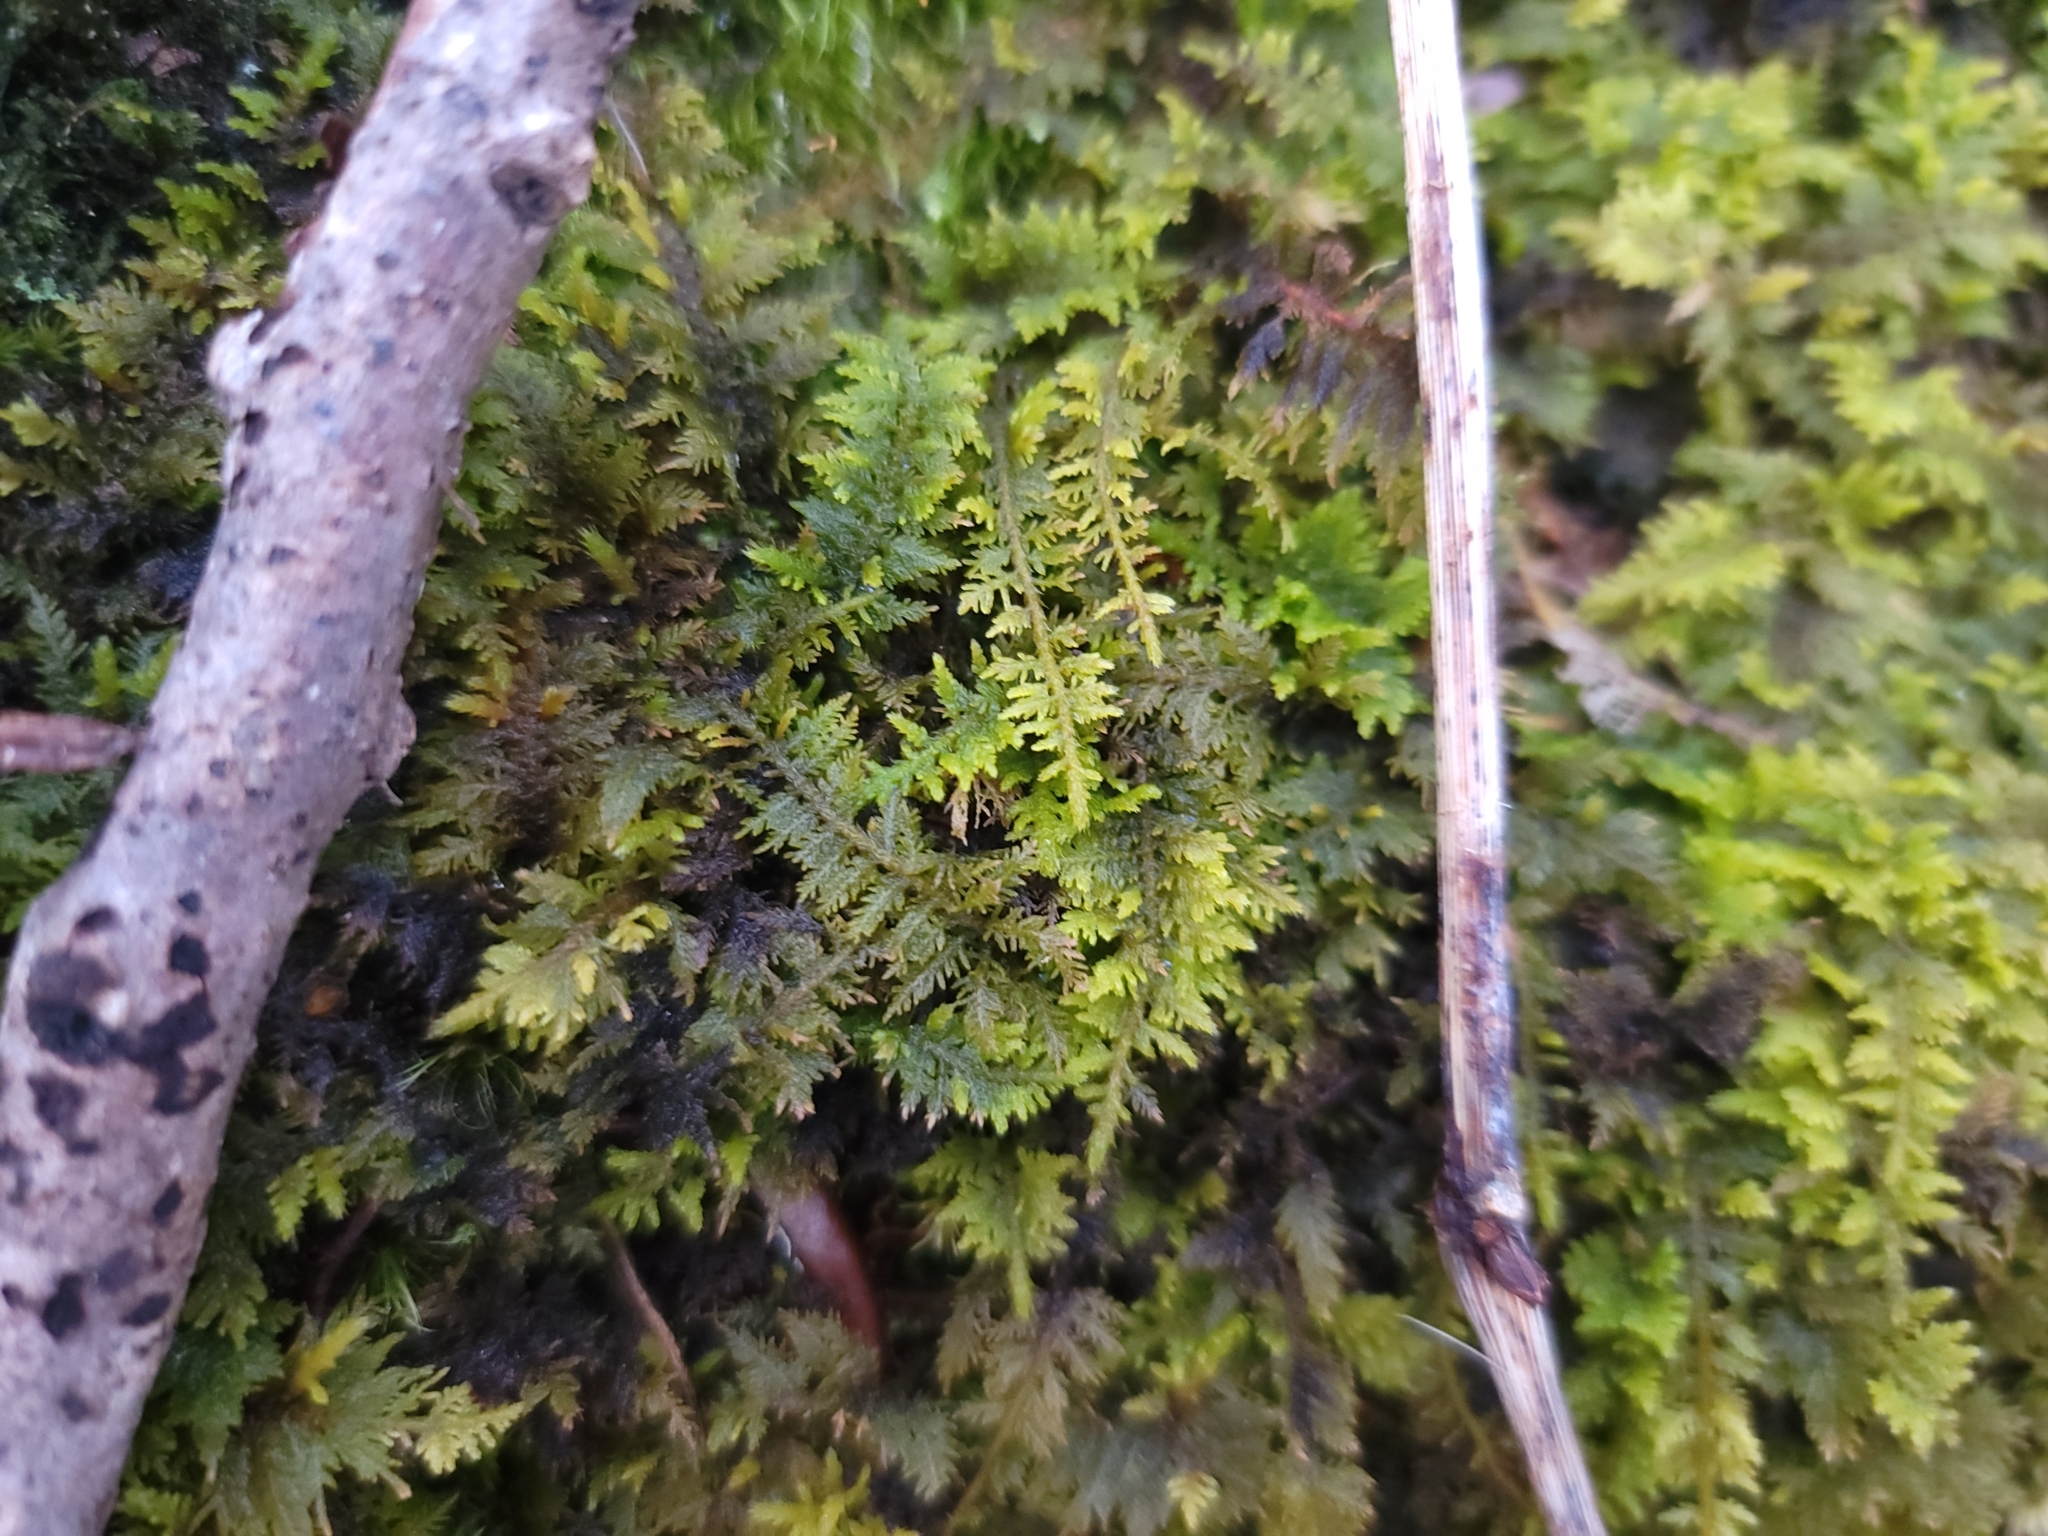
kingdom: Plantae
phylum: Bryophyta
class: Bryopsida
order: Hypnales
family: Thuidiaceae
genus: Thuidium
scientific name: Thuidium delicatulum
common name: Delicate fern moss
